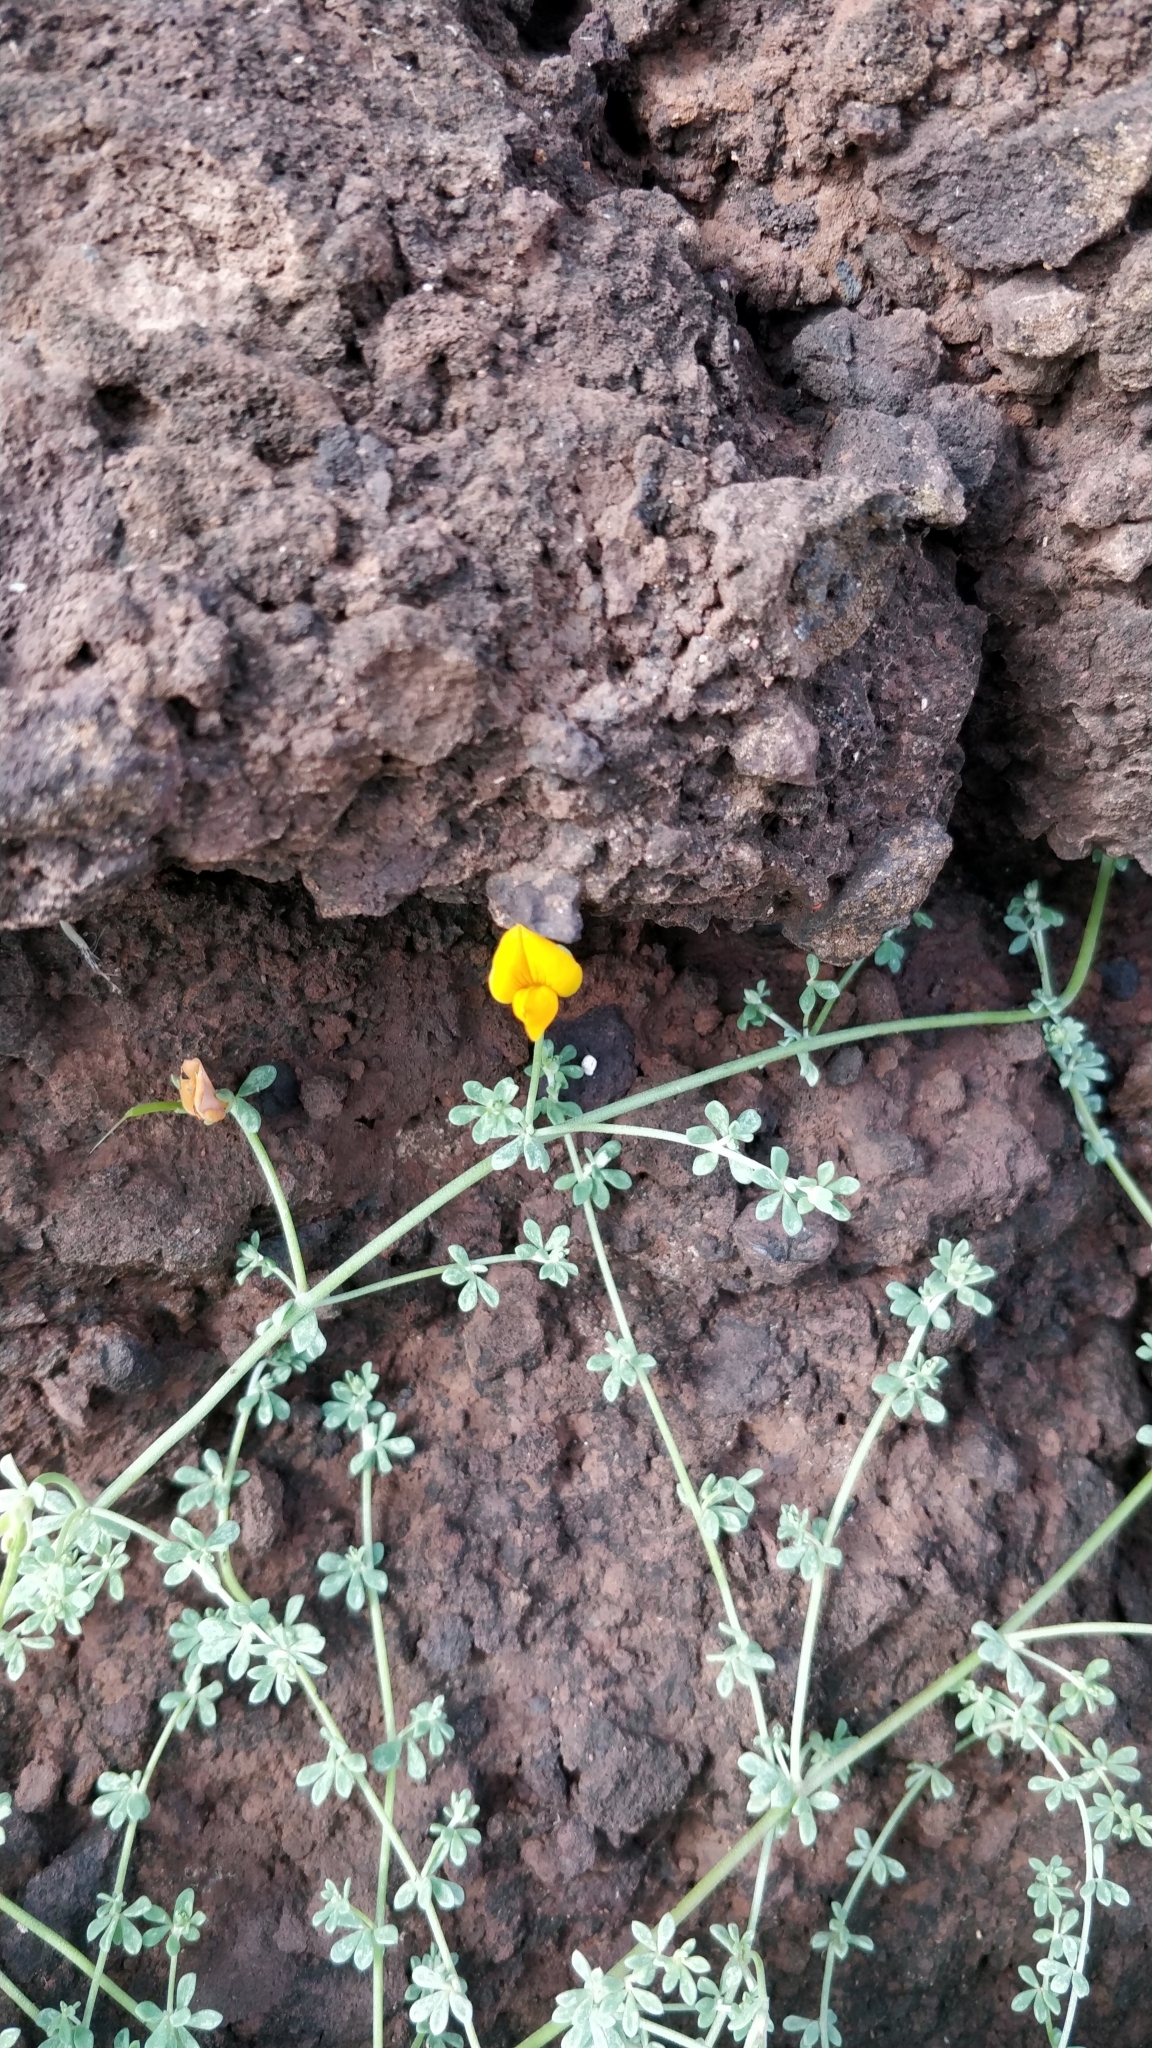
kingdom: Plantae
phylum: Tracheophyta
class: Magnoliopsida
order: Fabales
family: Fabaceae
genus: Lotus
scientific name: Lotus glaucus
